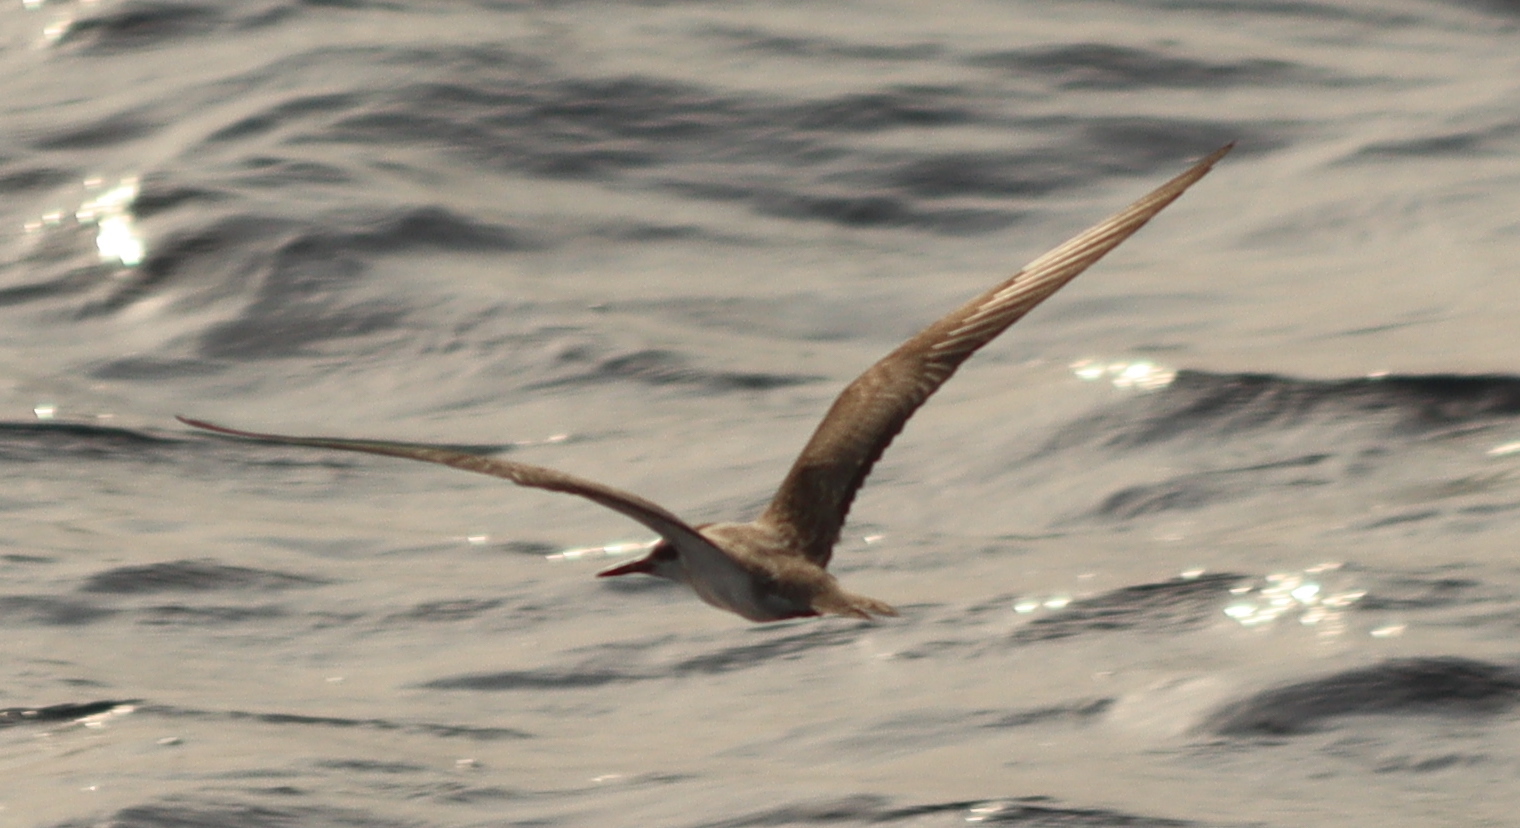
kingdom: Animalia
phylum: Chordata
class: Aves
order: Charadriiformes
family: Laridae
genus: Onychoprion
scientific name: Onychoprion anaethetus
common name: Bridled tern
